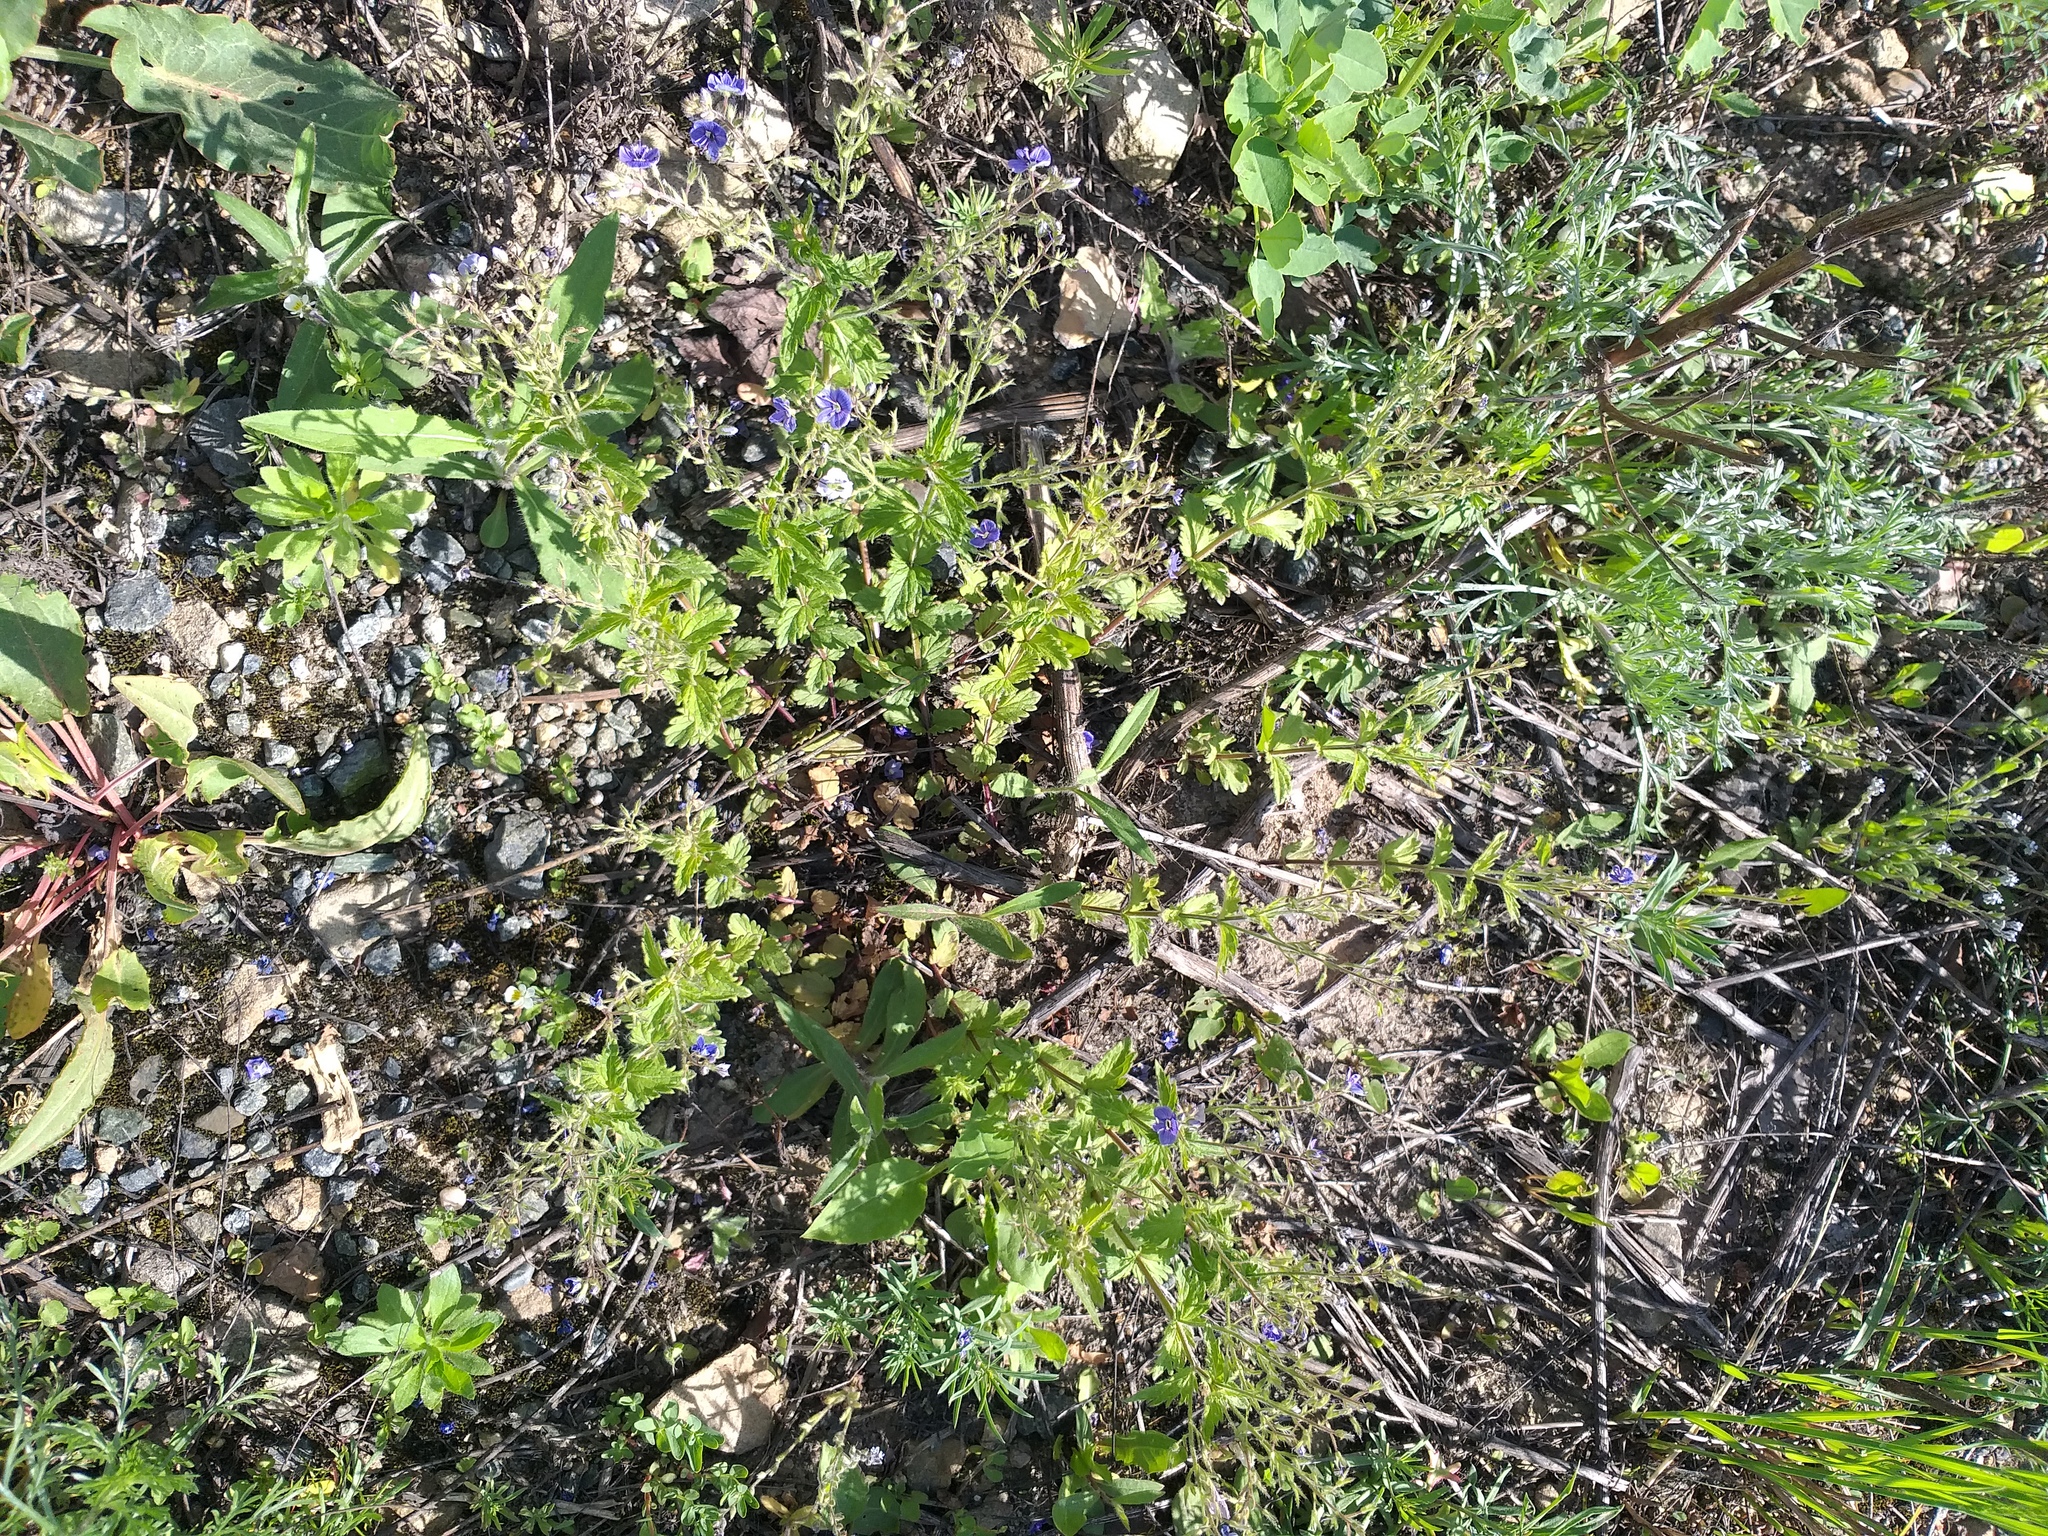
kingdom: Plantae
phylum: Tracheophyta
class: Magnoliopsida
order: Lamiales
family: Plantaginaceae
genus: Veronica
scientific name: Veronica chamaedrys
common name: Germander speedwell
